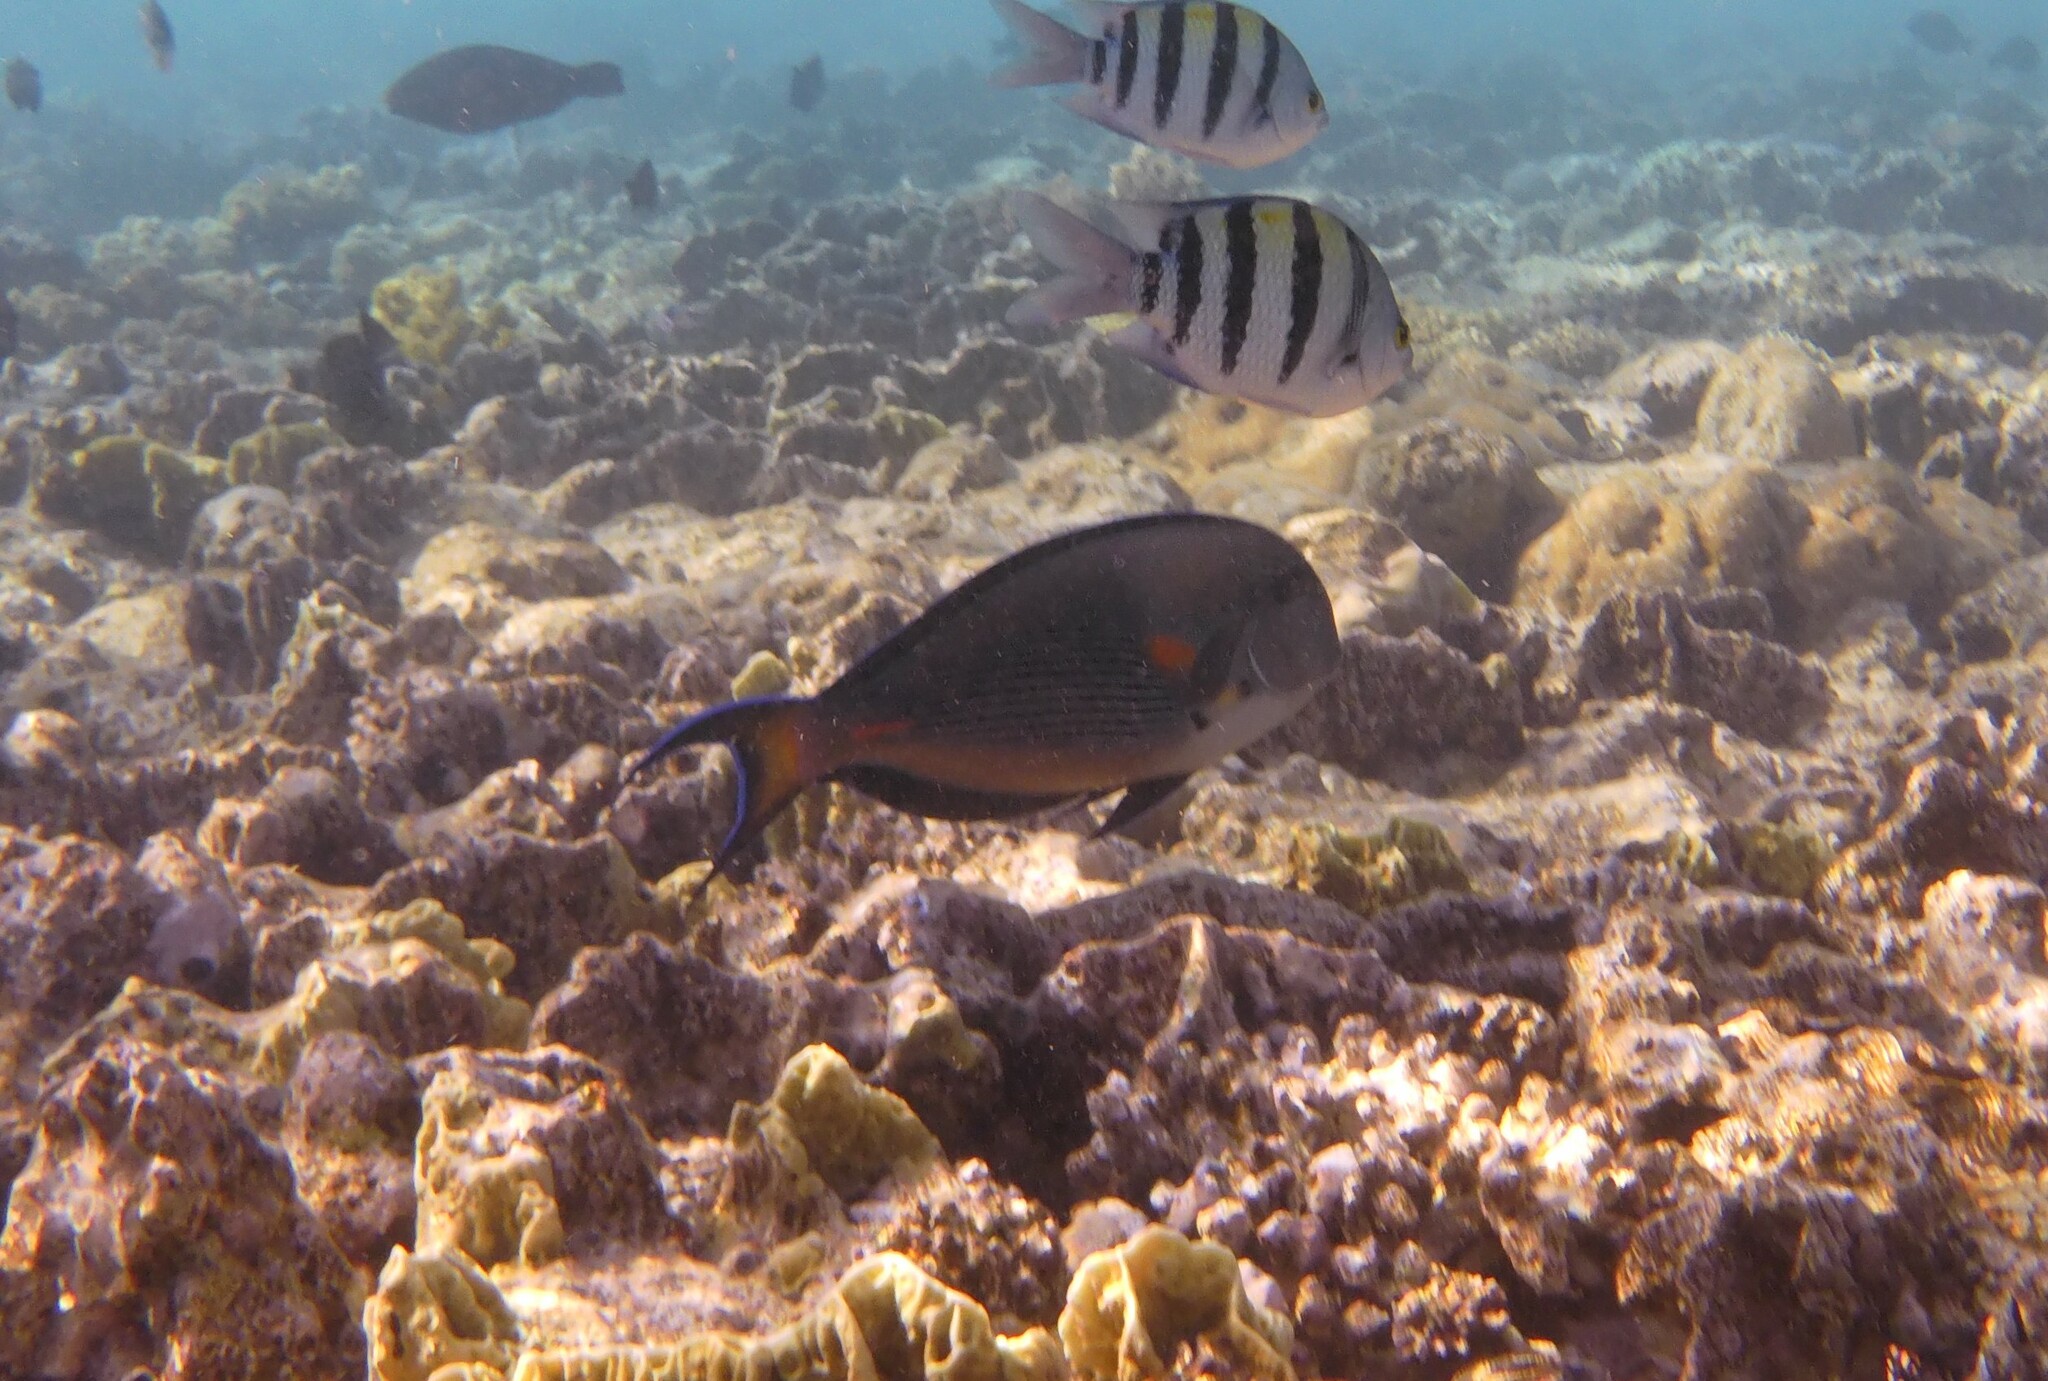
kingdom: Animalia
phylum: Chordata
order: Perciformes
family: Acanthuridae
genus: Acanthurus
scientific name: Acanthurus sohal
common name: Red sea surgeonfish
